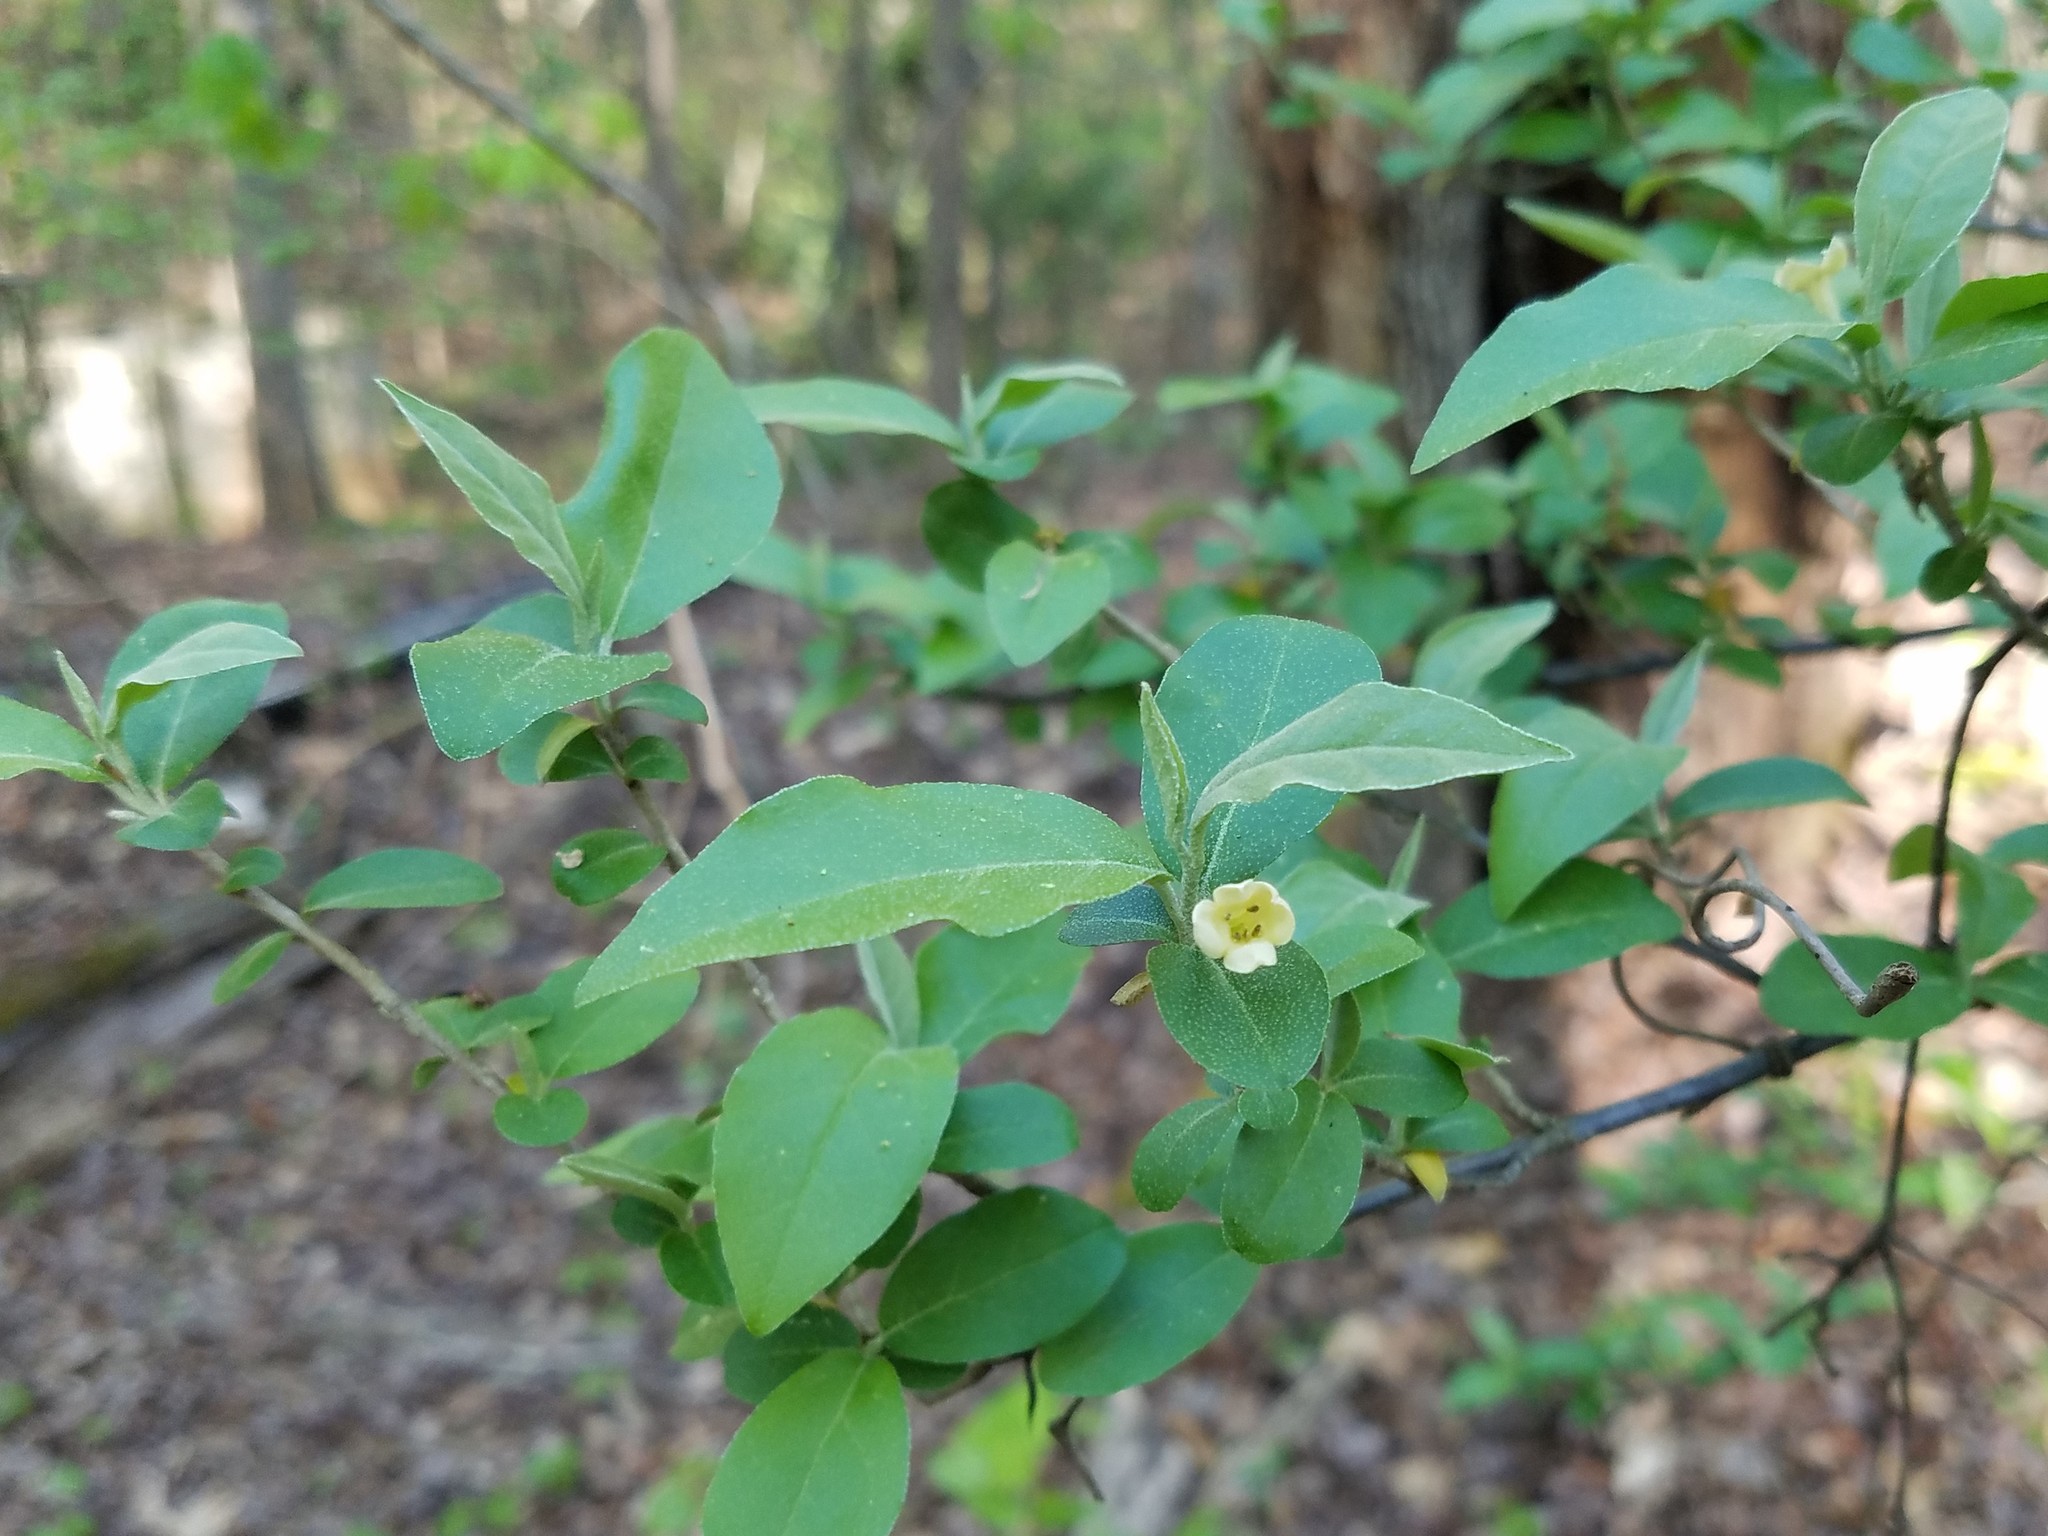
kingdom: Plantae
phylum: Tracheophyta
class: Magnoliopsida
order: Rosales
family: Elaeagnaceae
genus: Elaeagnus
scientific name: Elaeagnus umbellata
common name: Autumn olive
